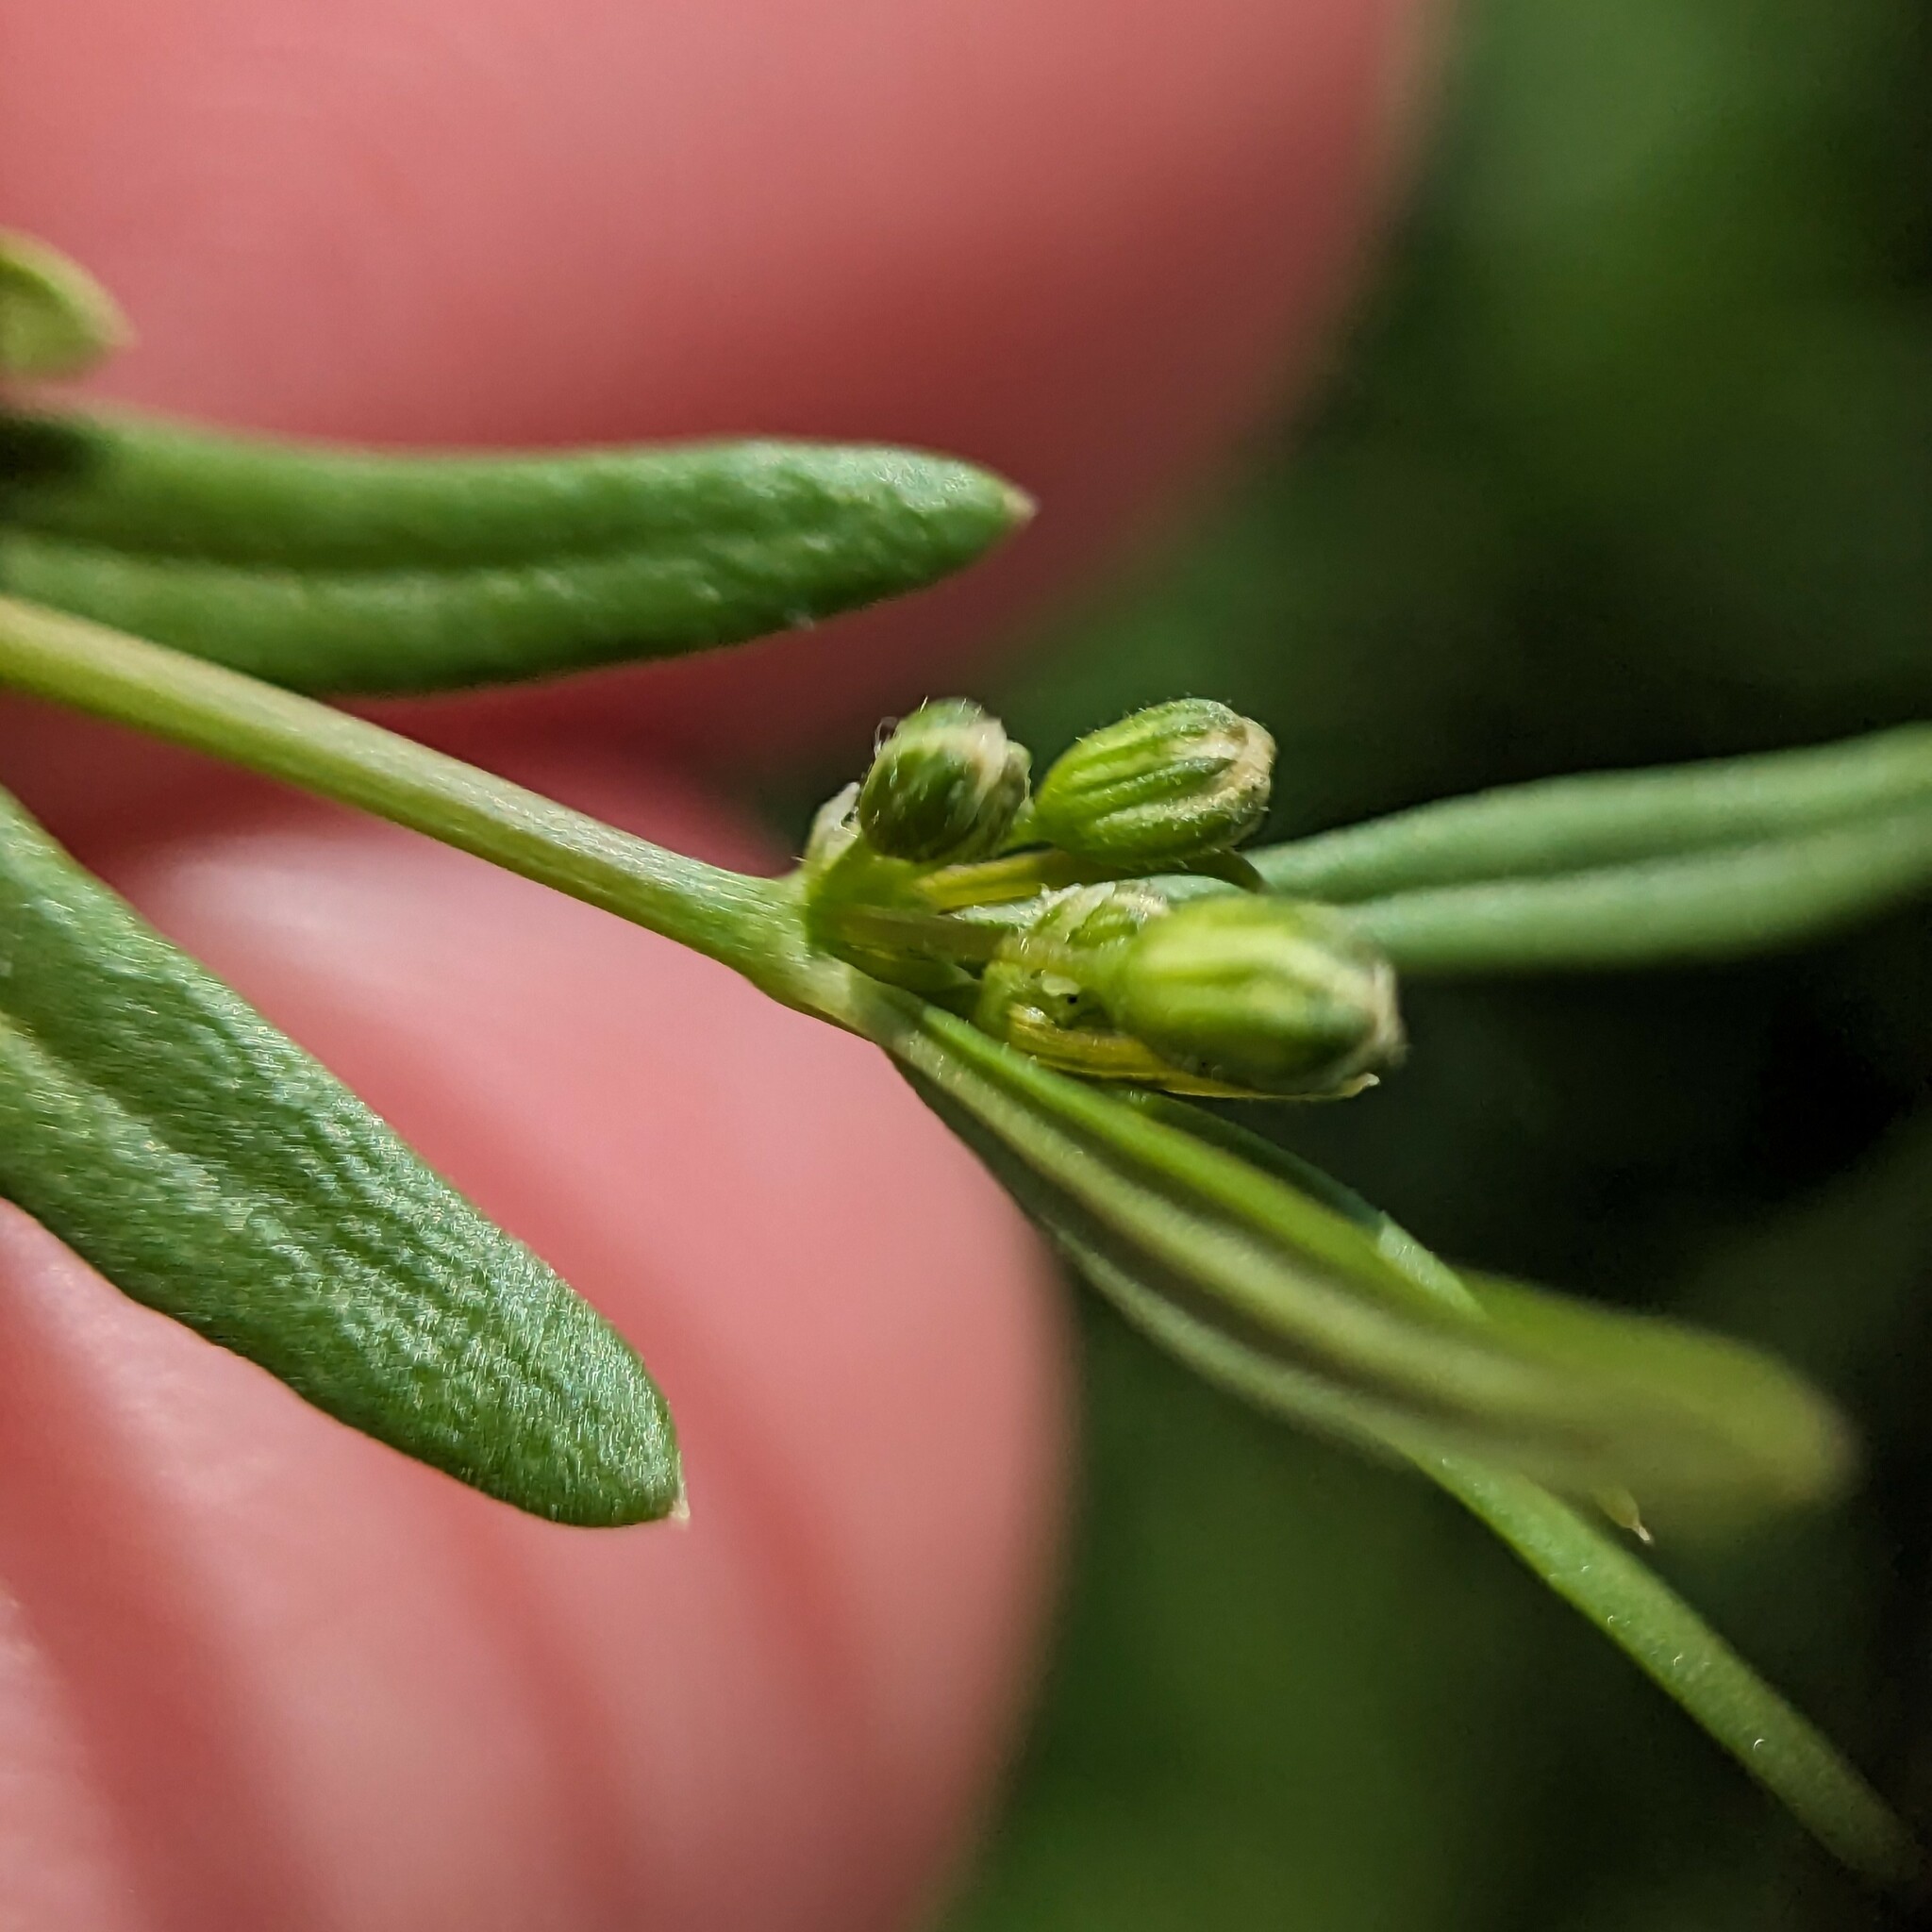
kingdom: Plantae
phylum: Tracheophyta
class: Magnoliopsida
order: Caryophyllales
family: Molluginaceae
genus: Mollugo
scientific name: Mollugo verticillata
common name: Green carpetweed
